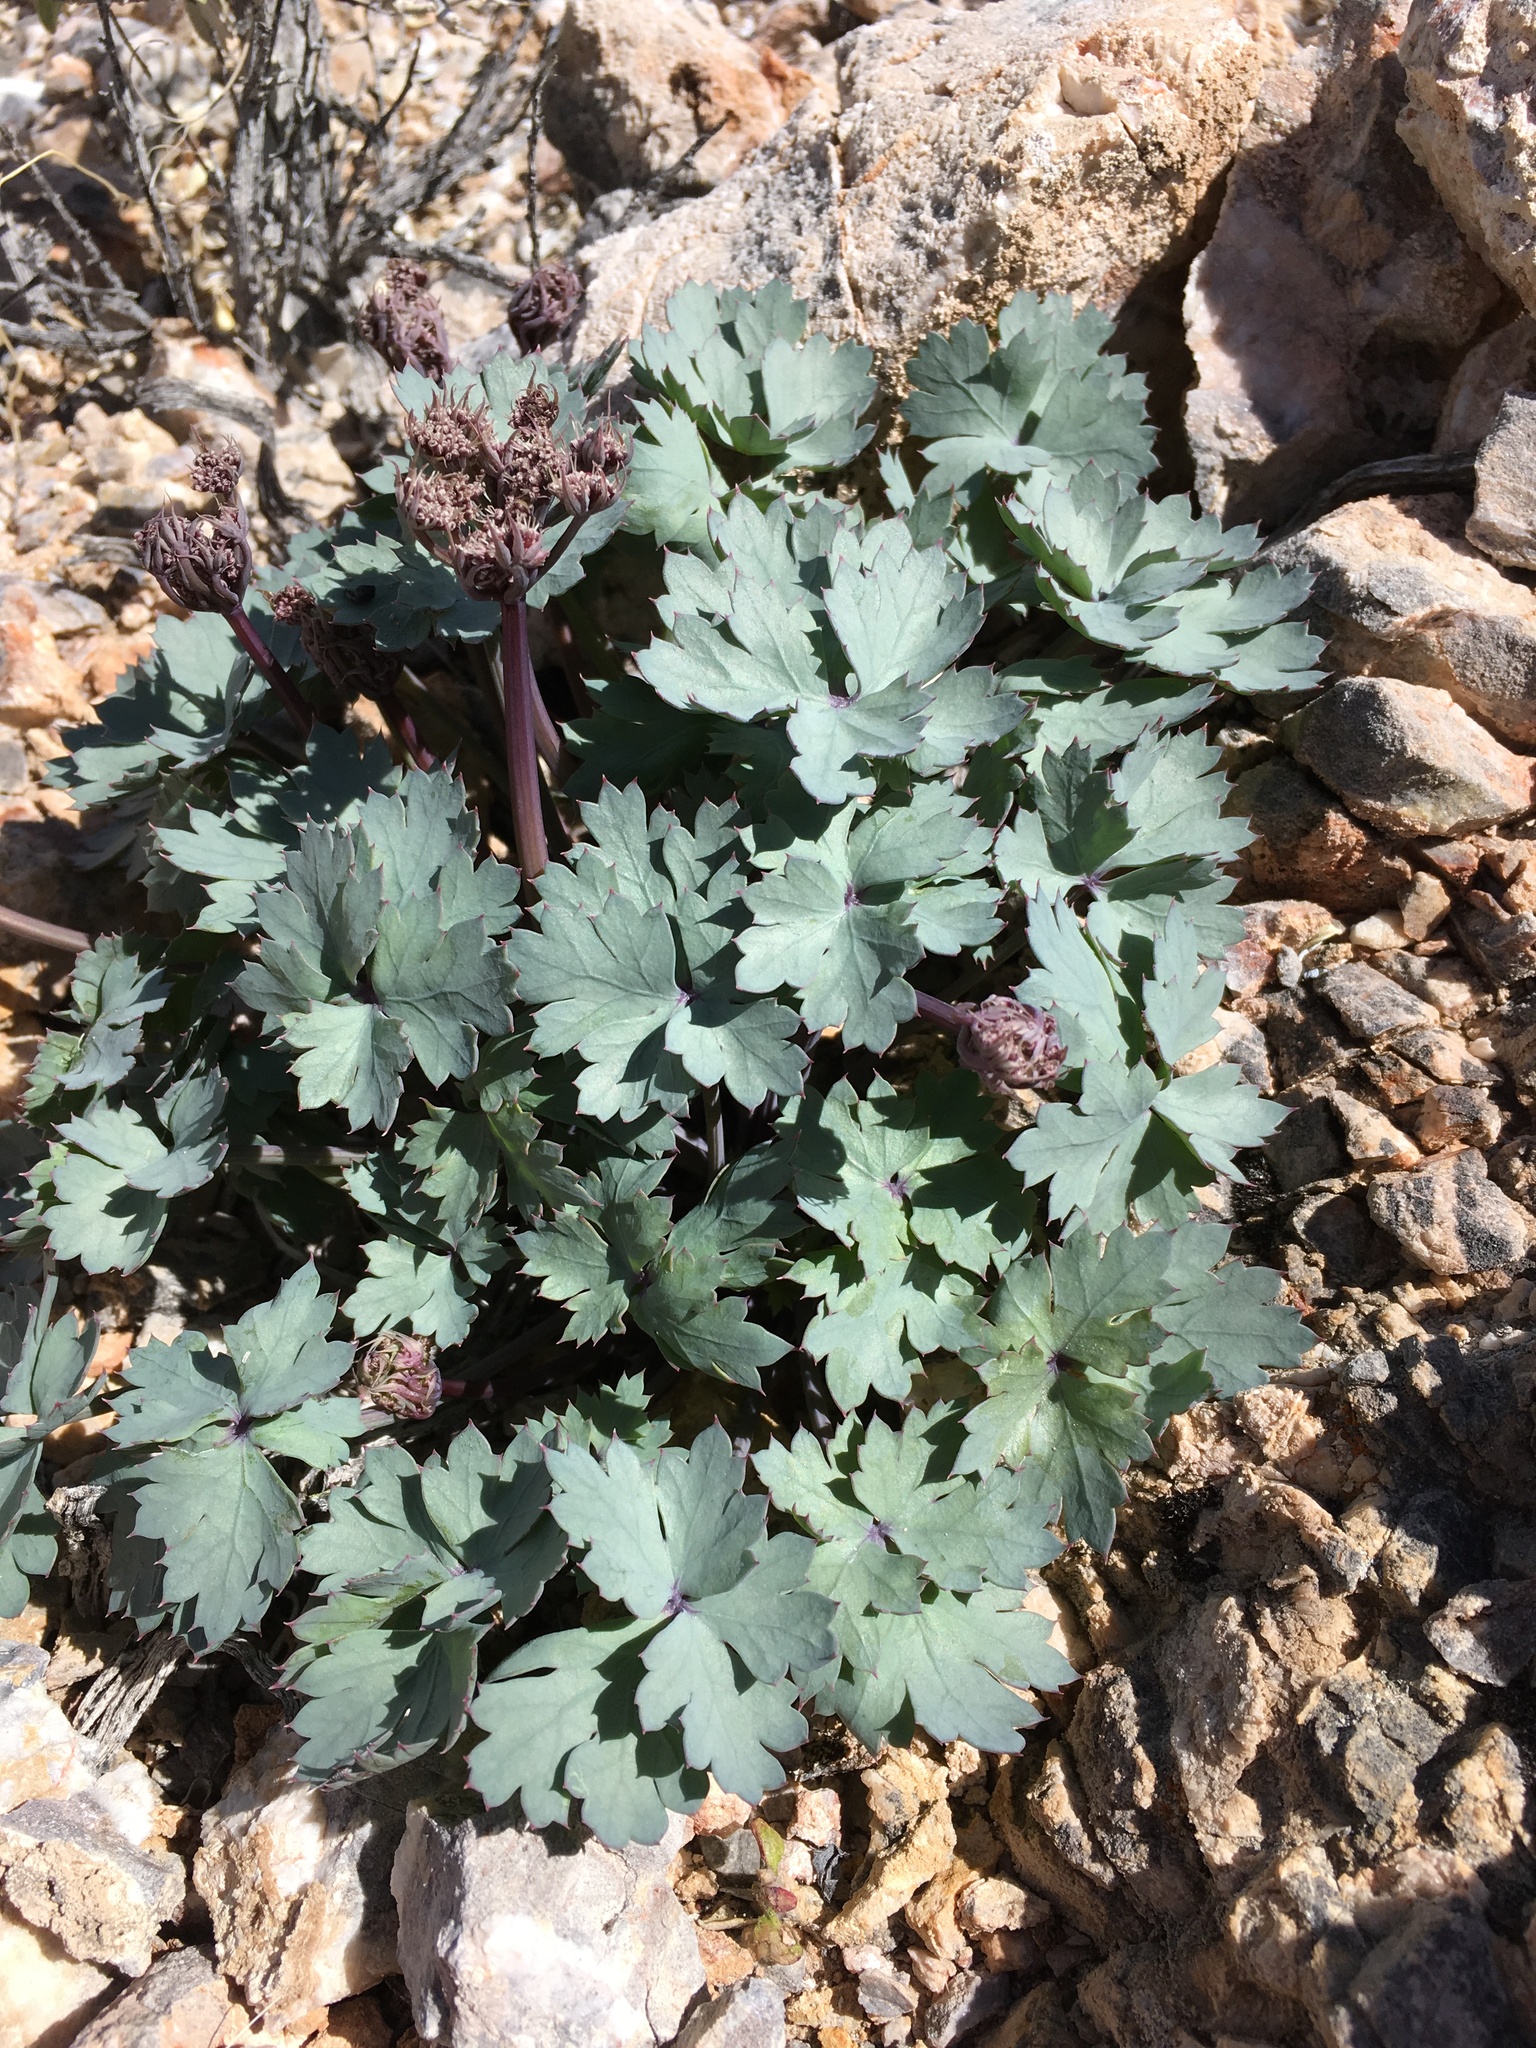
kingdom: Plantae
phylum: Tracheophyta
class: Magnoliopsida
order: Apiales
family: Apiaceae
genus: Cymopterus
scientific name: Cymopterus gilmanii
